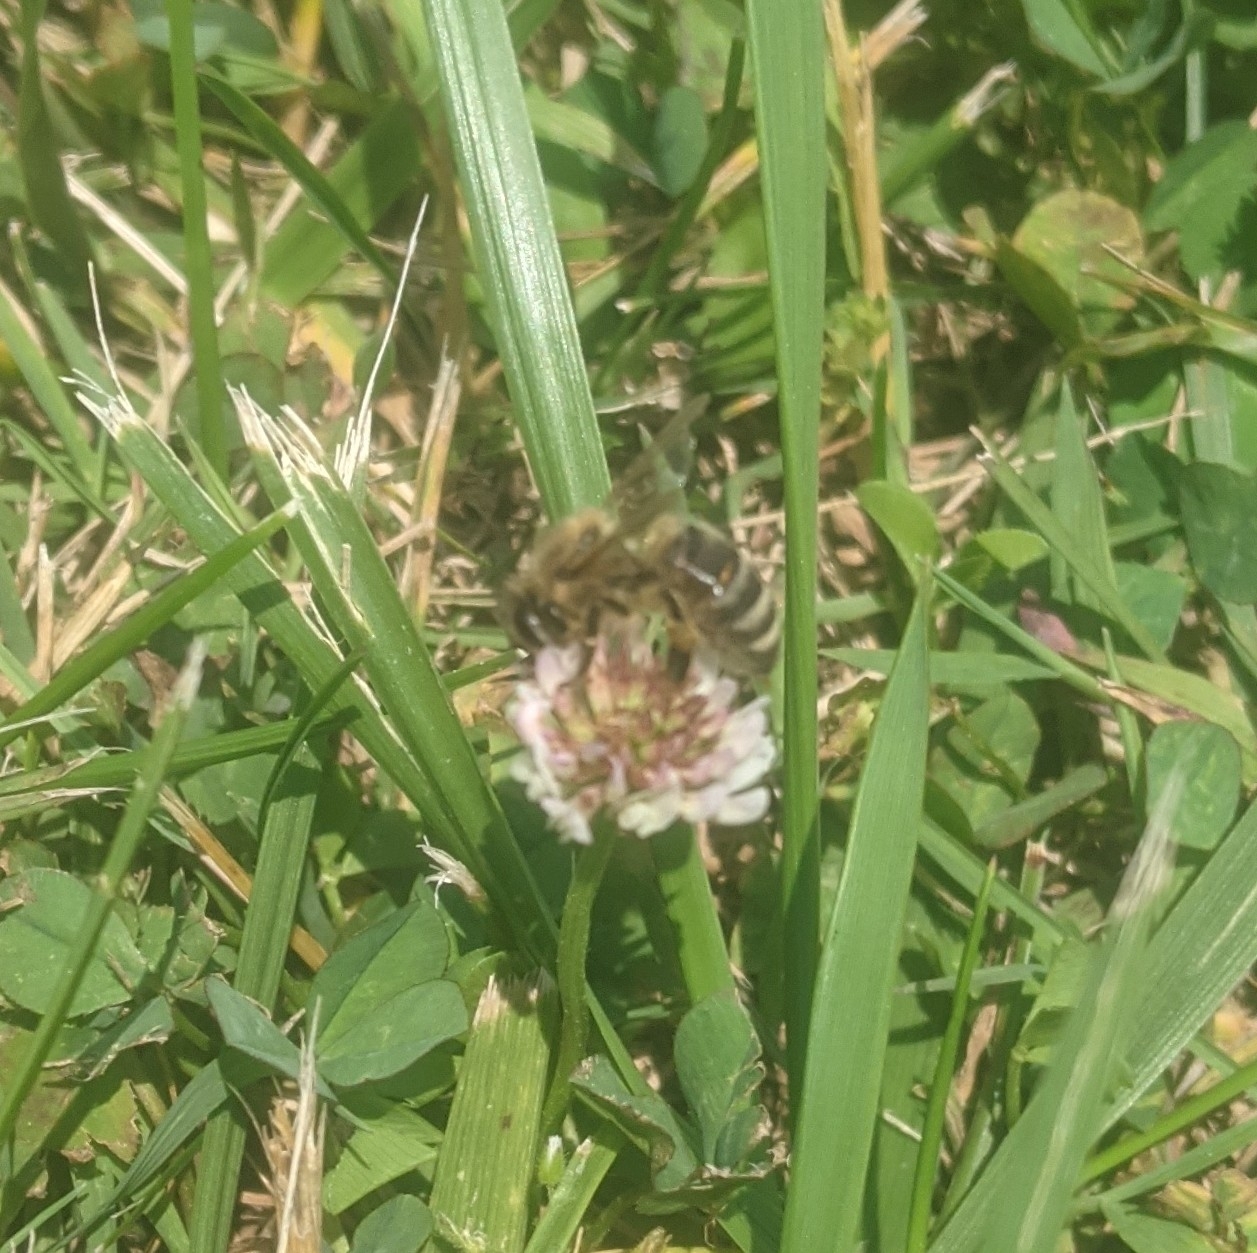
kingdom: Animalia
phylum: Arthropoda
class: Insecta
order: Hymenoptera
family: Apidae
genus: Apis
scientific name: Apis mellifera
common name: Honey bee
